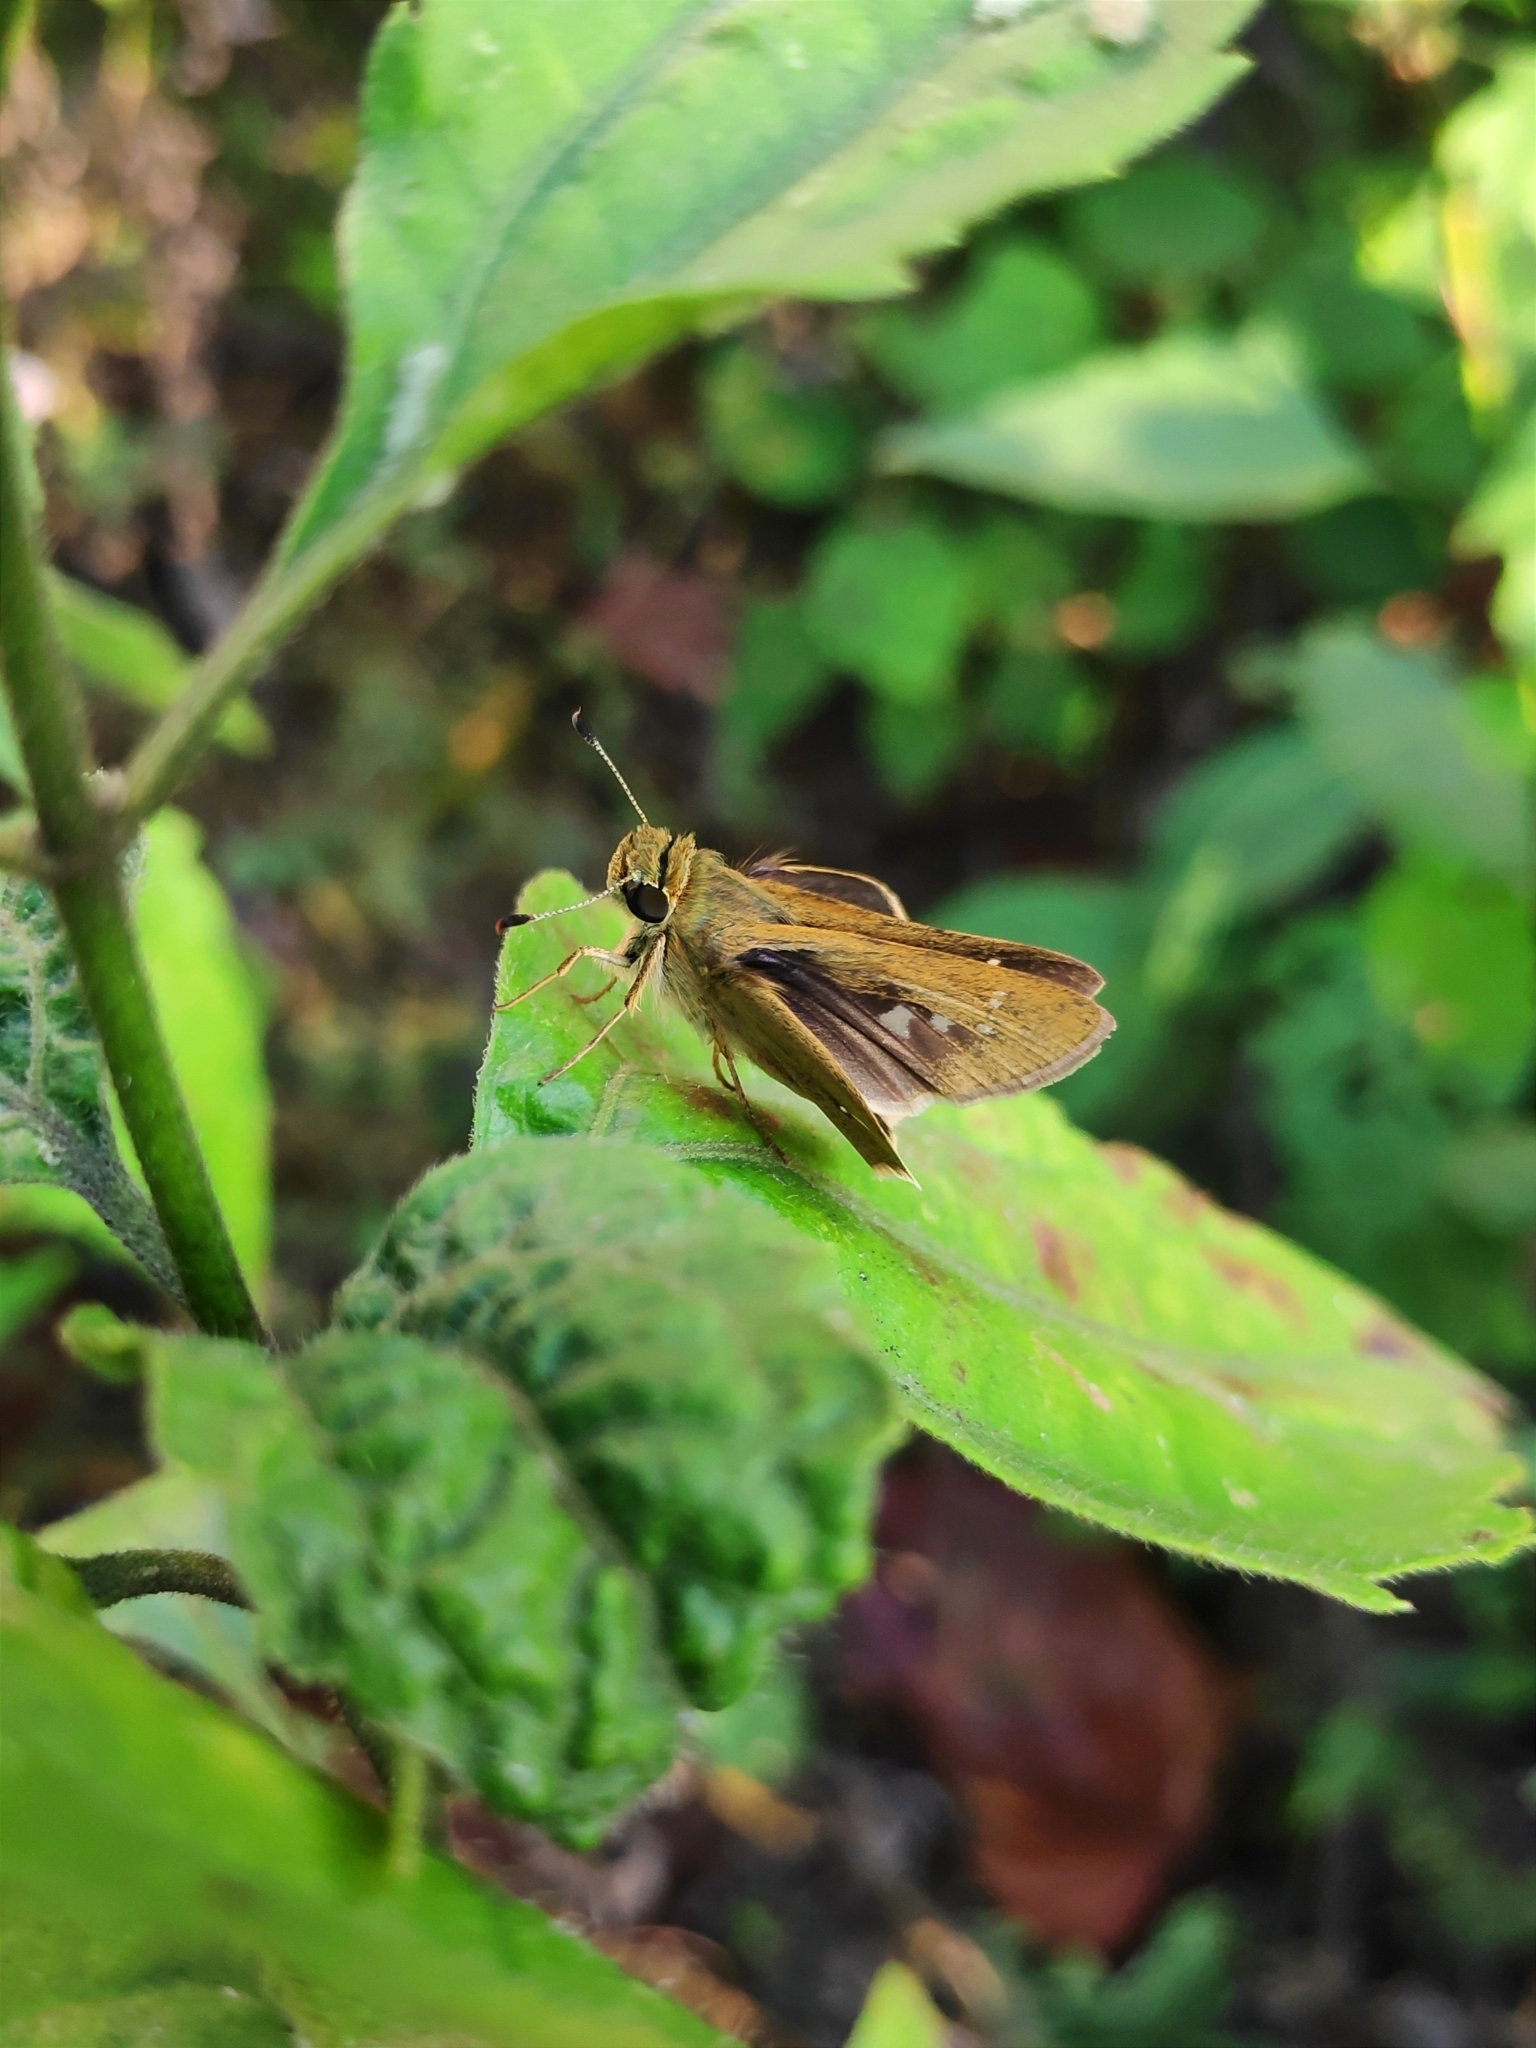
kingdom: Animalia
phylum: Arthropoda
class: Insecta
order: Lepidoptera
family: Hesperiidae
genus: Parnara
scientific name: Parnara naso
